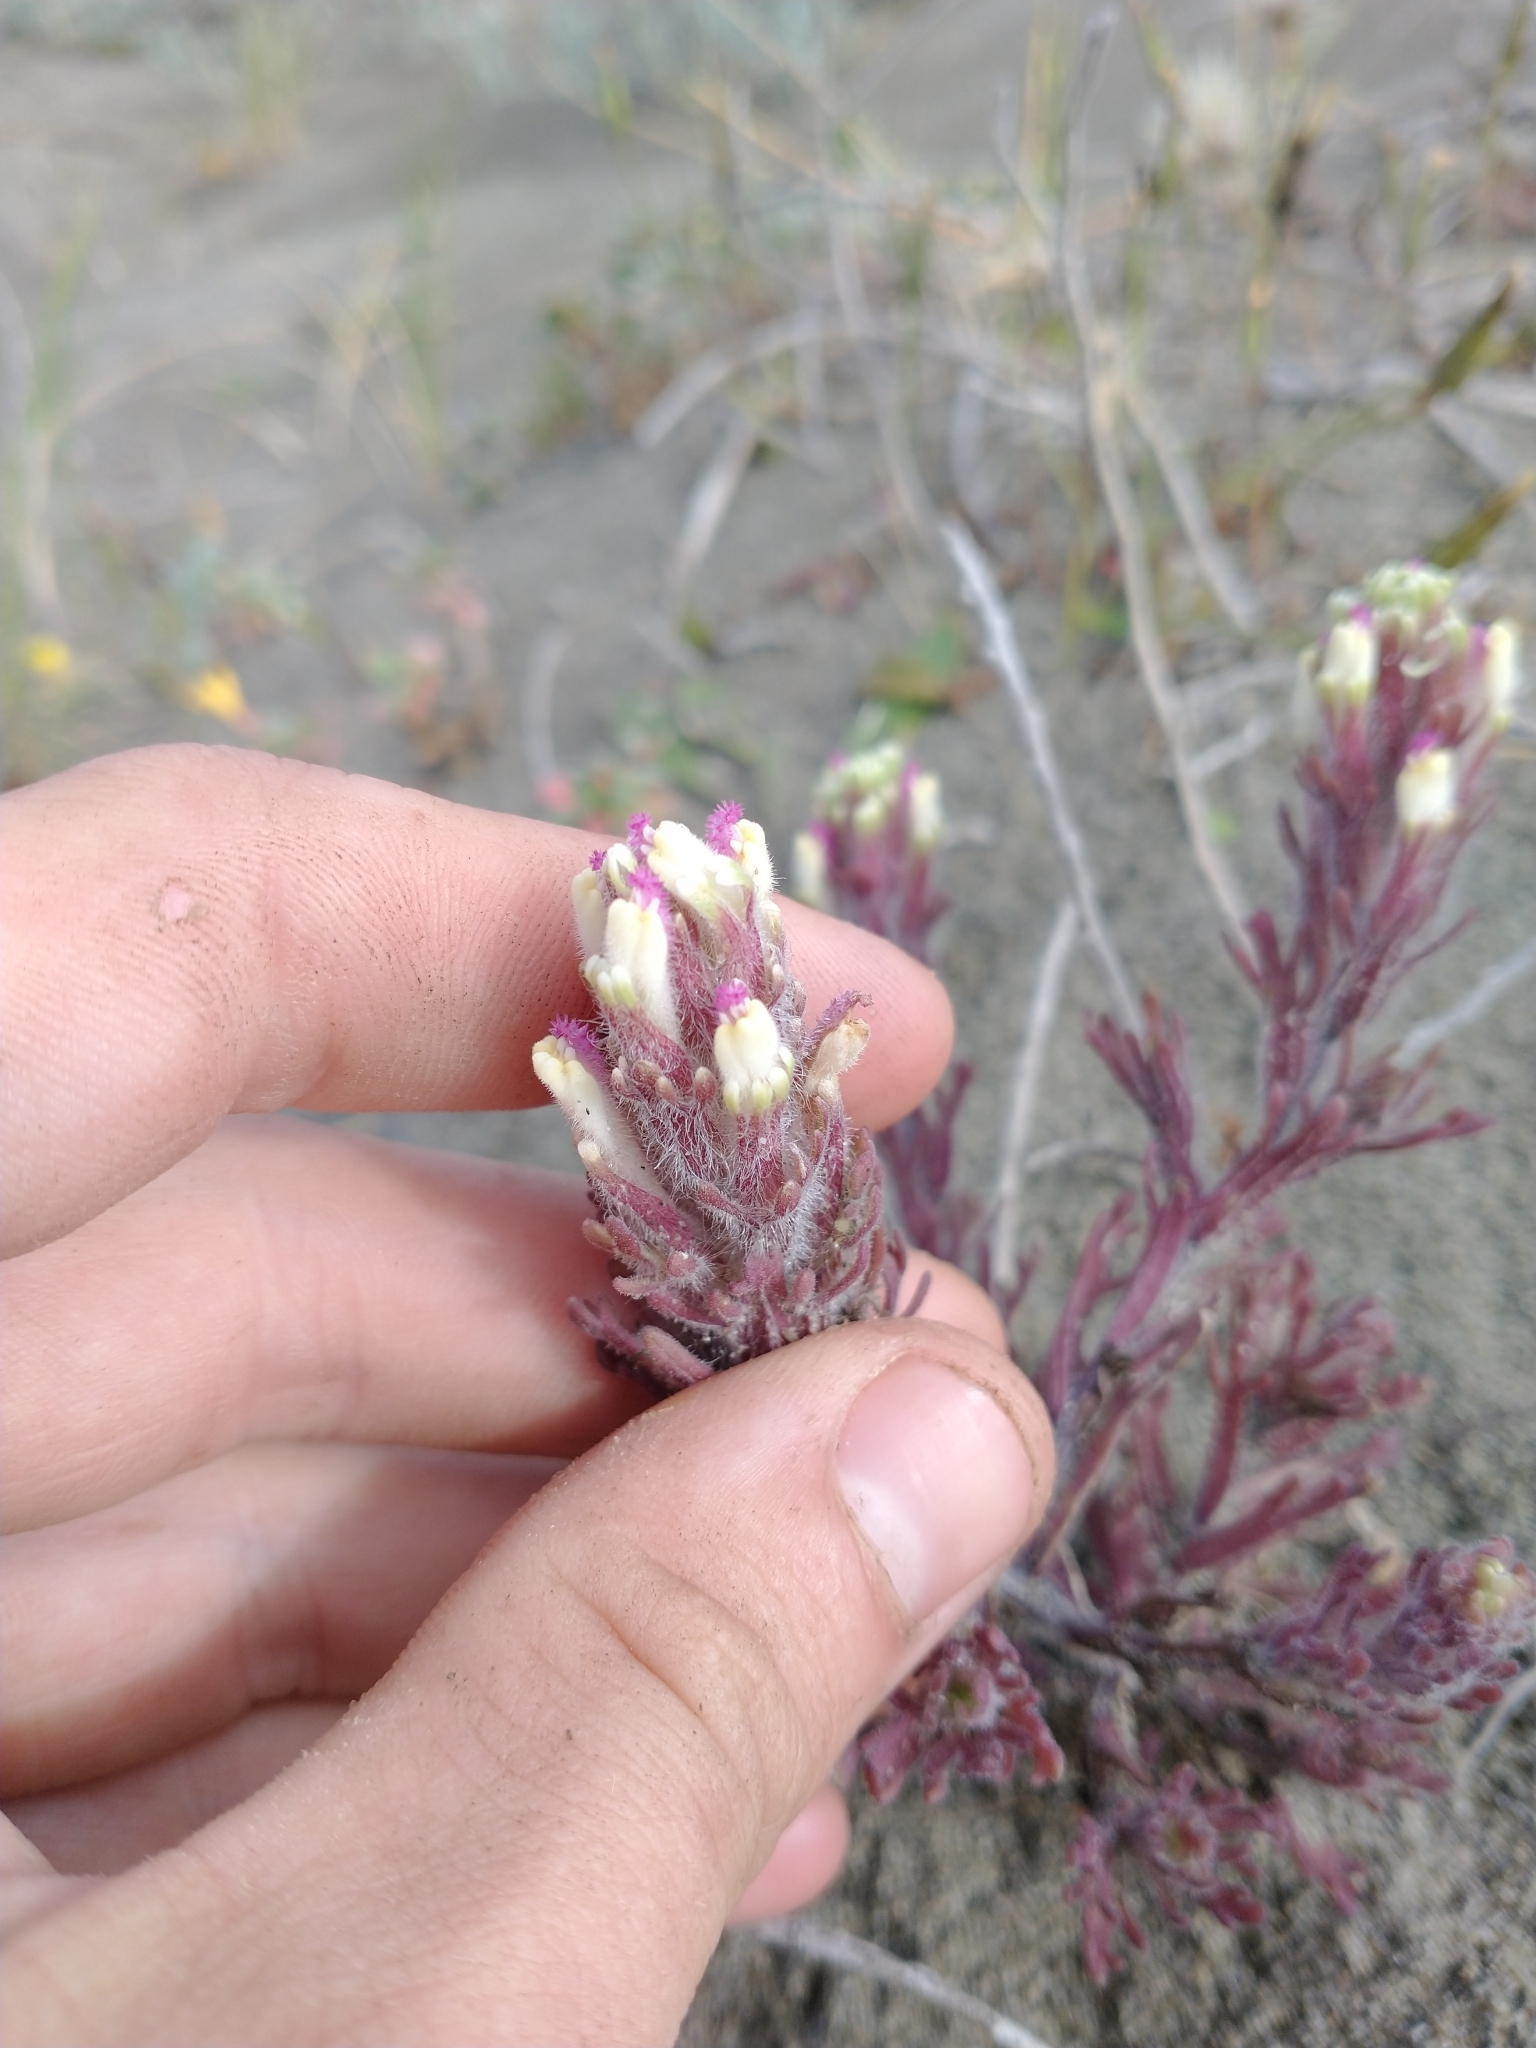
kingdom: Plantae
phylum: Tracheophyta
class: Magnoliopsida
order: Lamiales
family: Orobanchaceae
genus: Castilleja
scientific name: Castilleja exserta
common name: Purple owl-clover
